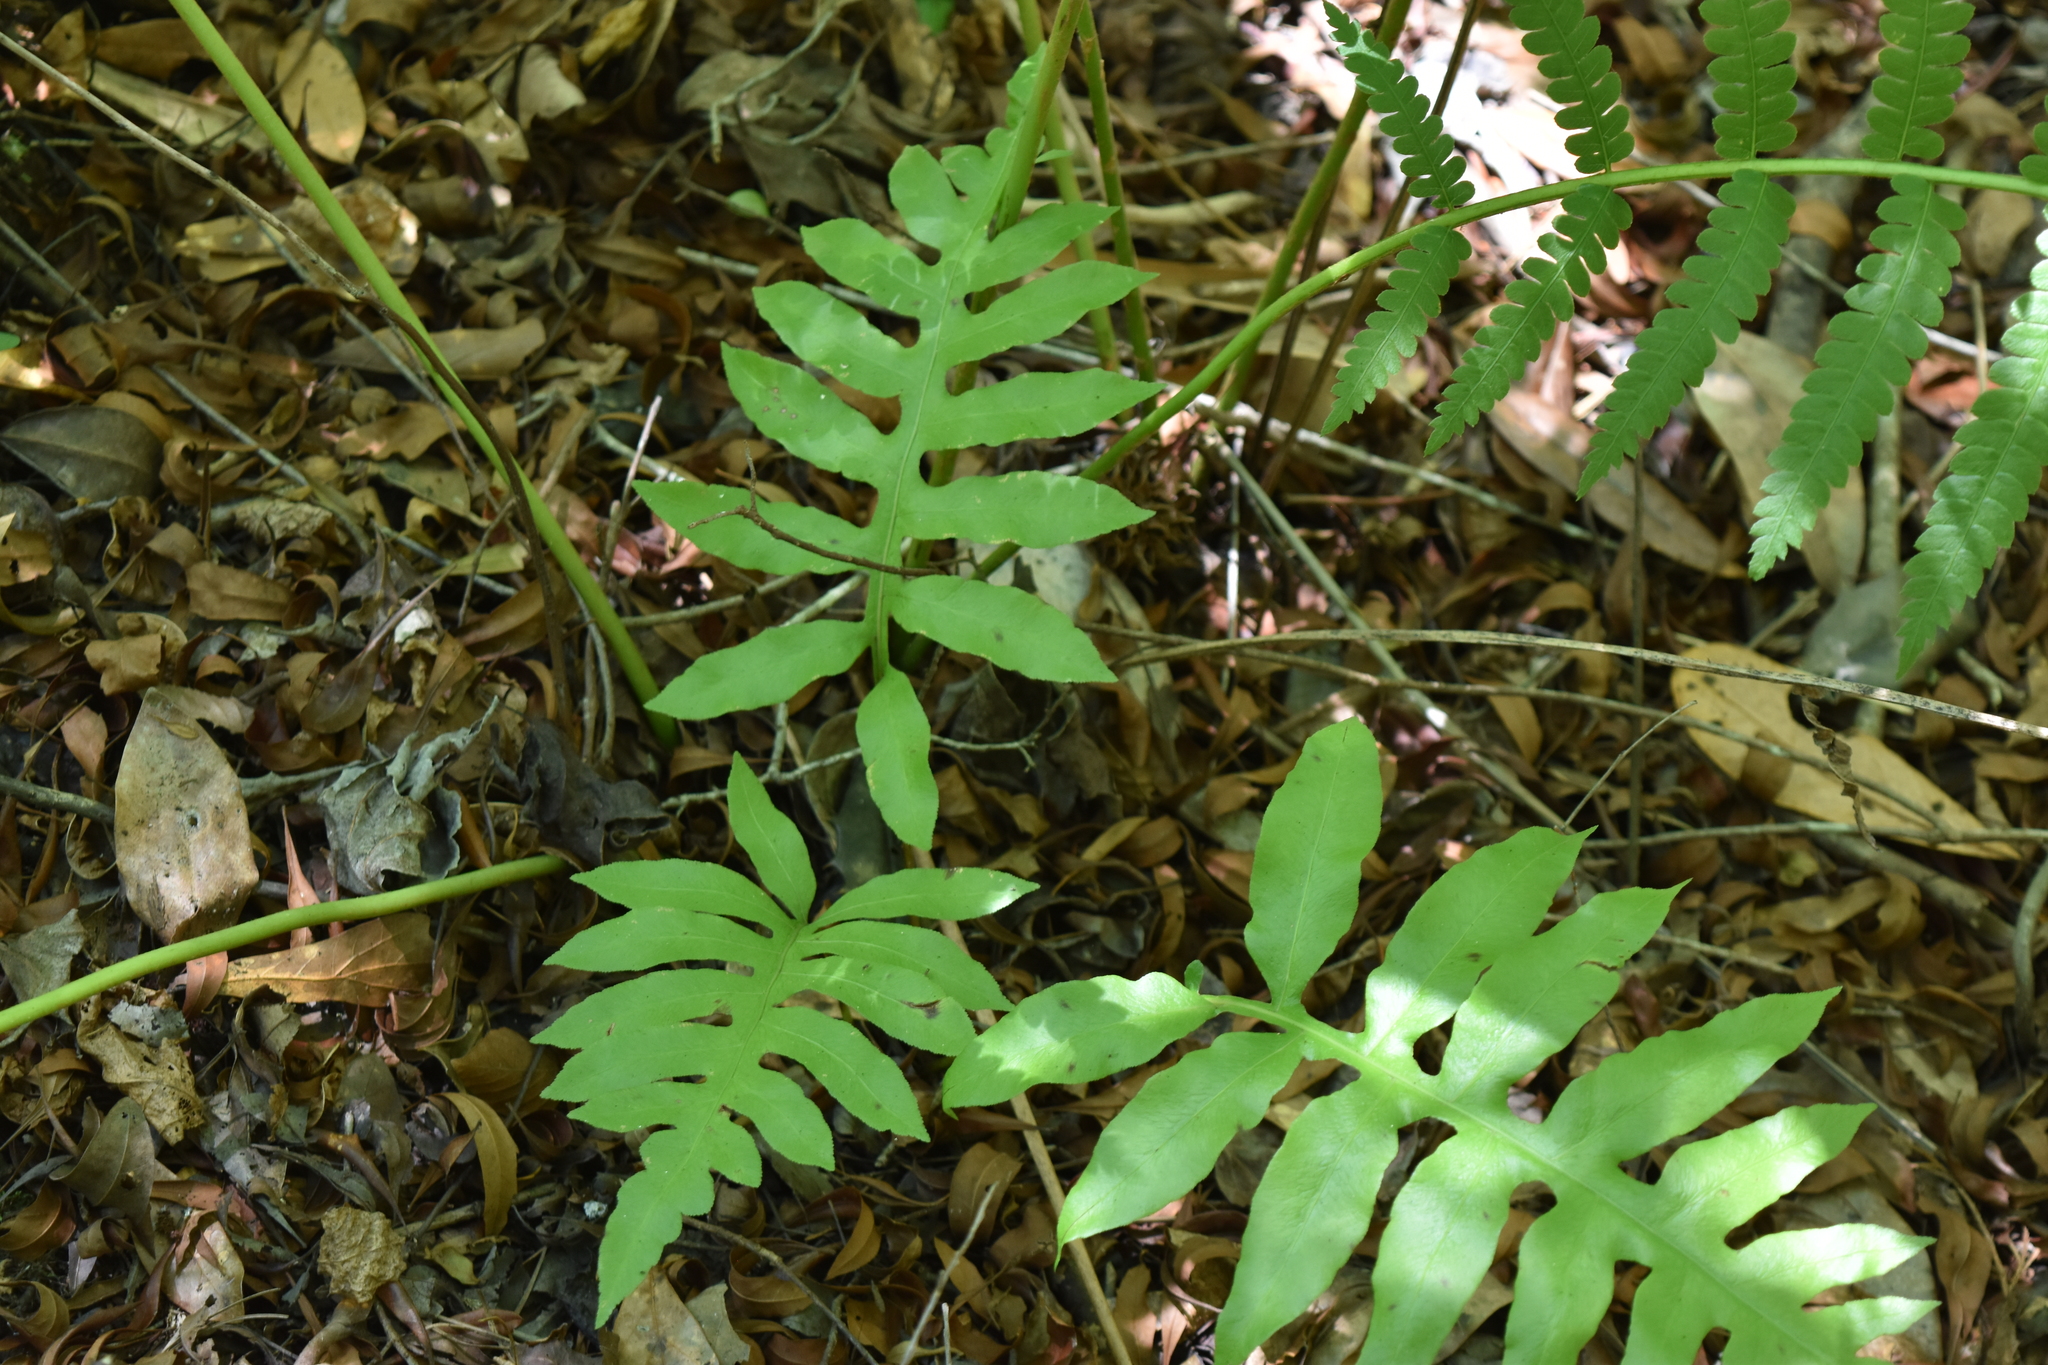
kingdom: Plantae
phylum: Tracheophyta
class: Polypodiopsida
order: Polypodiales
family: Blechnaceae
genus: Lorinseria
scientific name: Lorinseria areolata
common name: Dwarf chain fern
